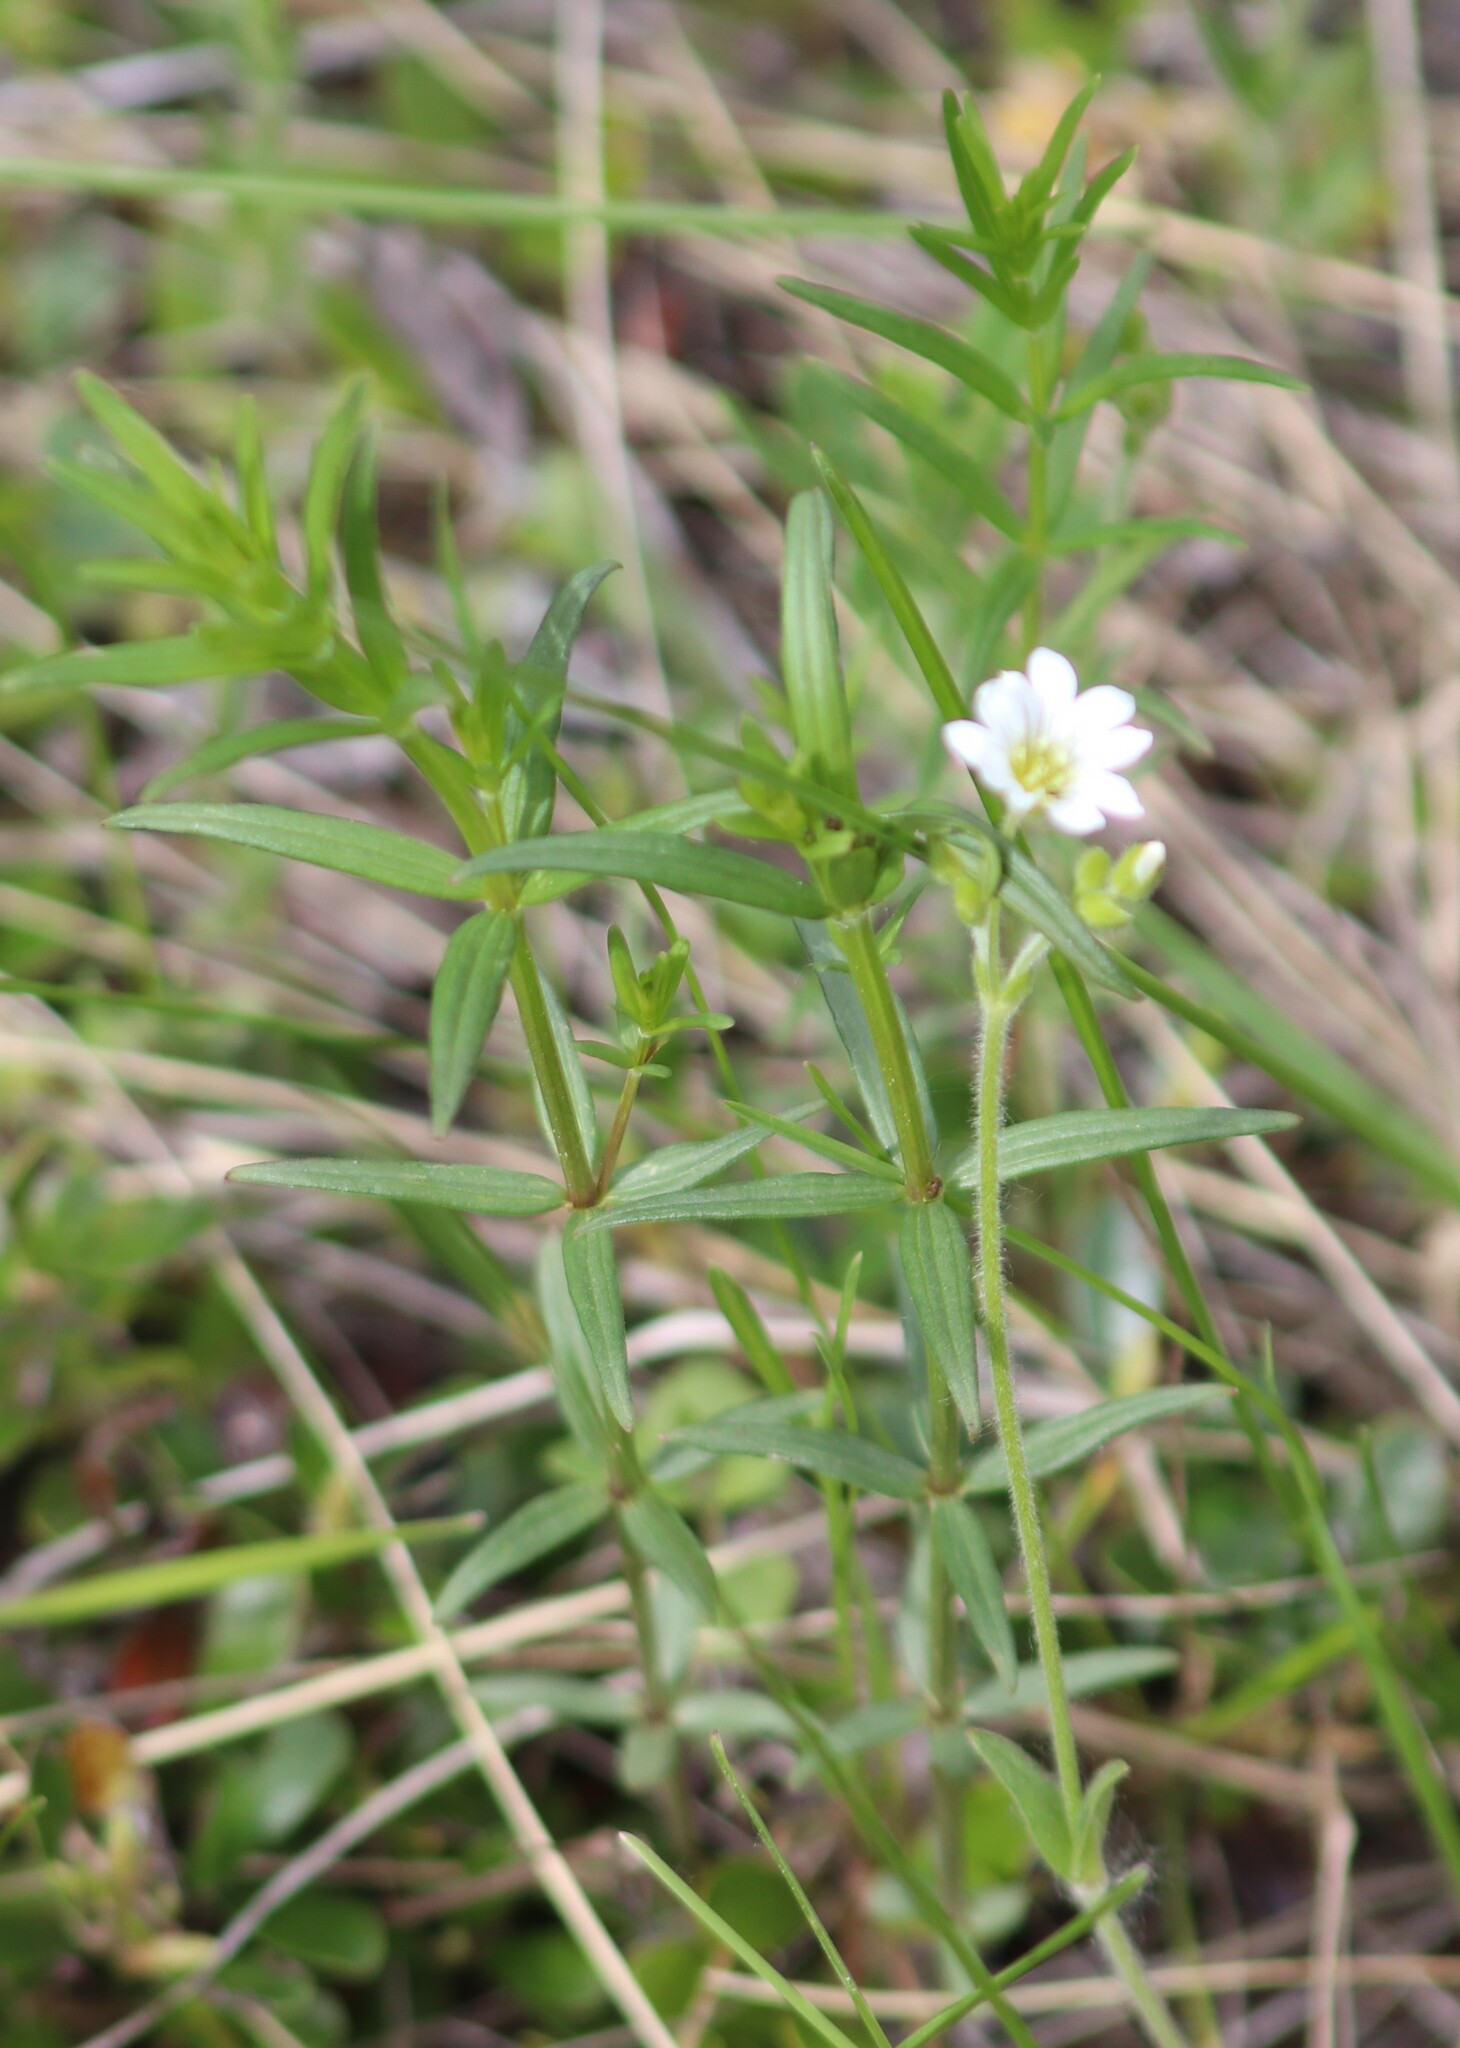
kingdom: Plantae
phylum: Tracheophyta
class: Magnoliopsida
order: Caryophyllales
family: Caryophyllaceae
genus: Cerastium
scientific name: Cerastium arvense
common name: Field mouse-ear
